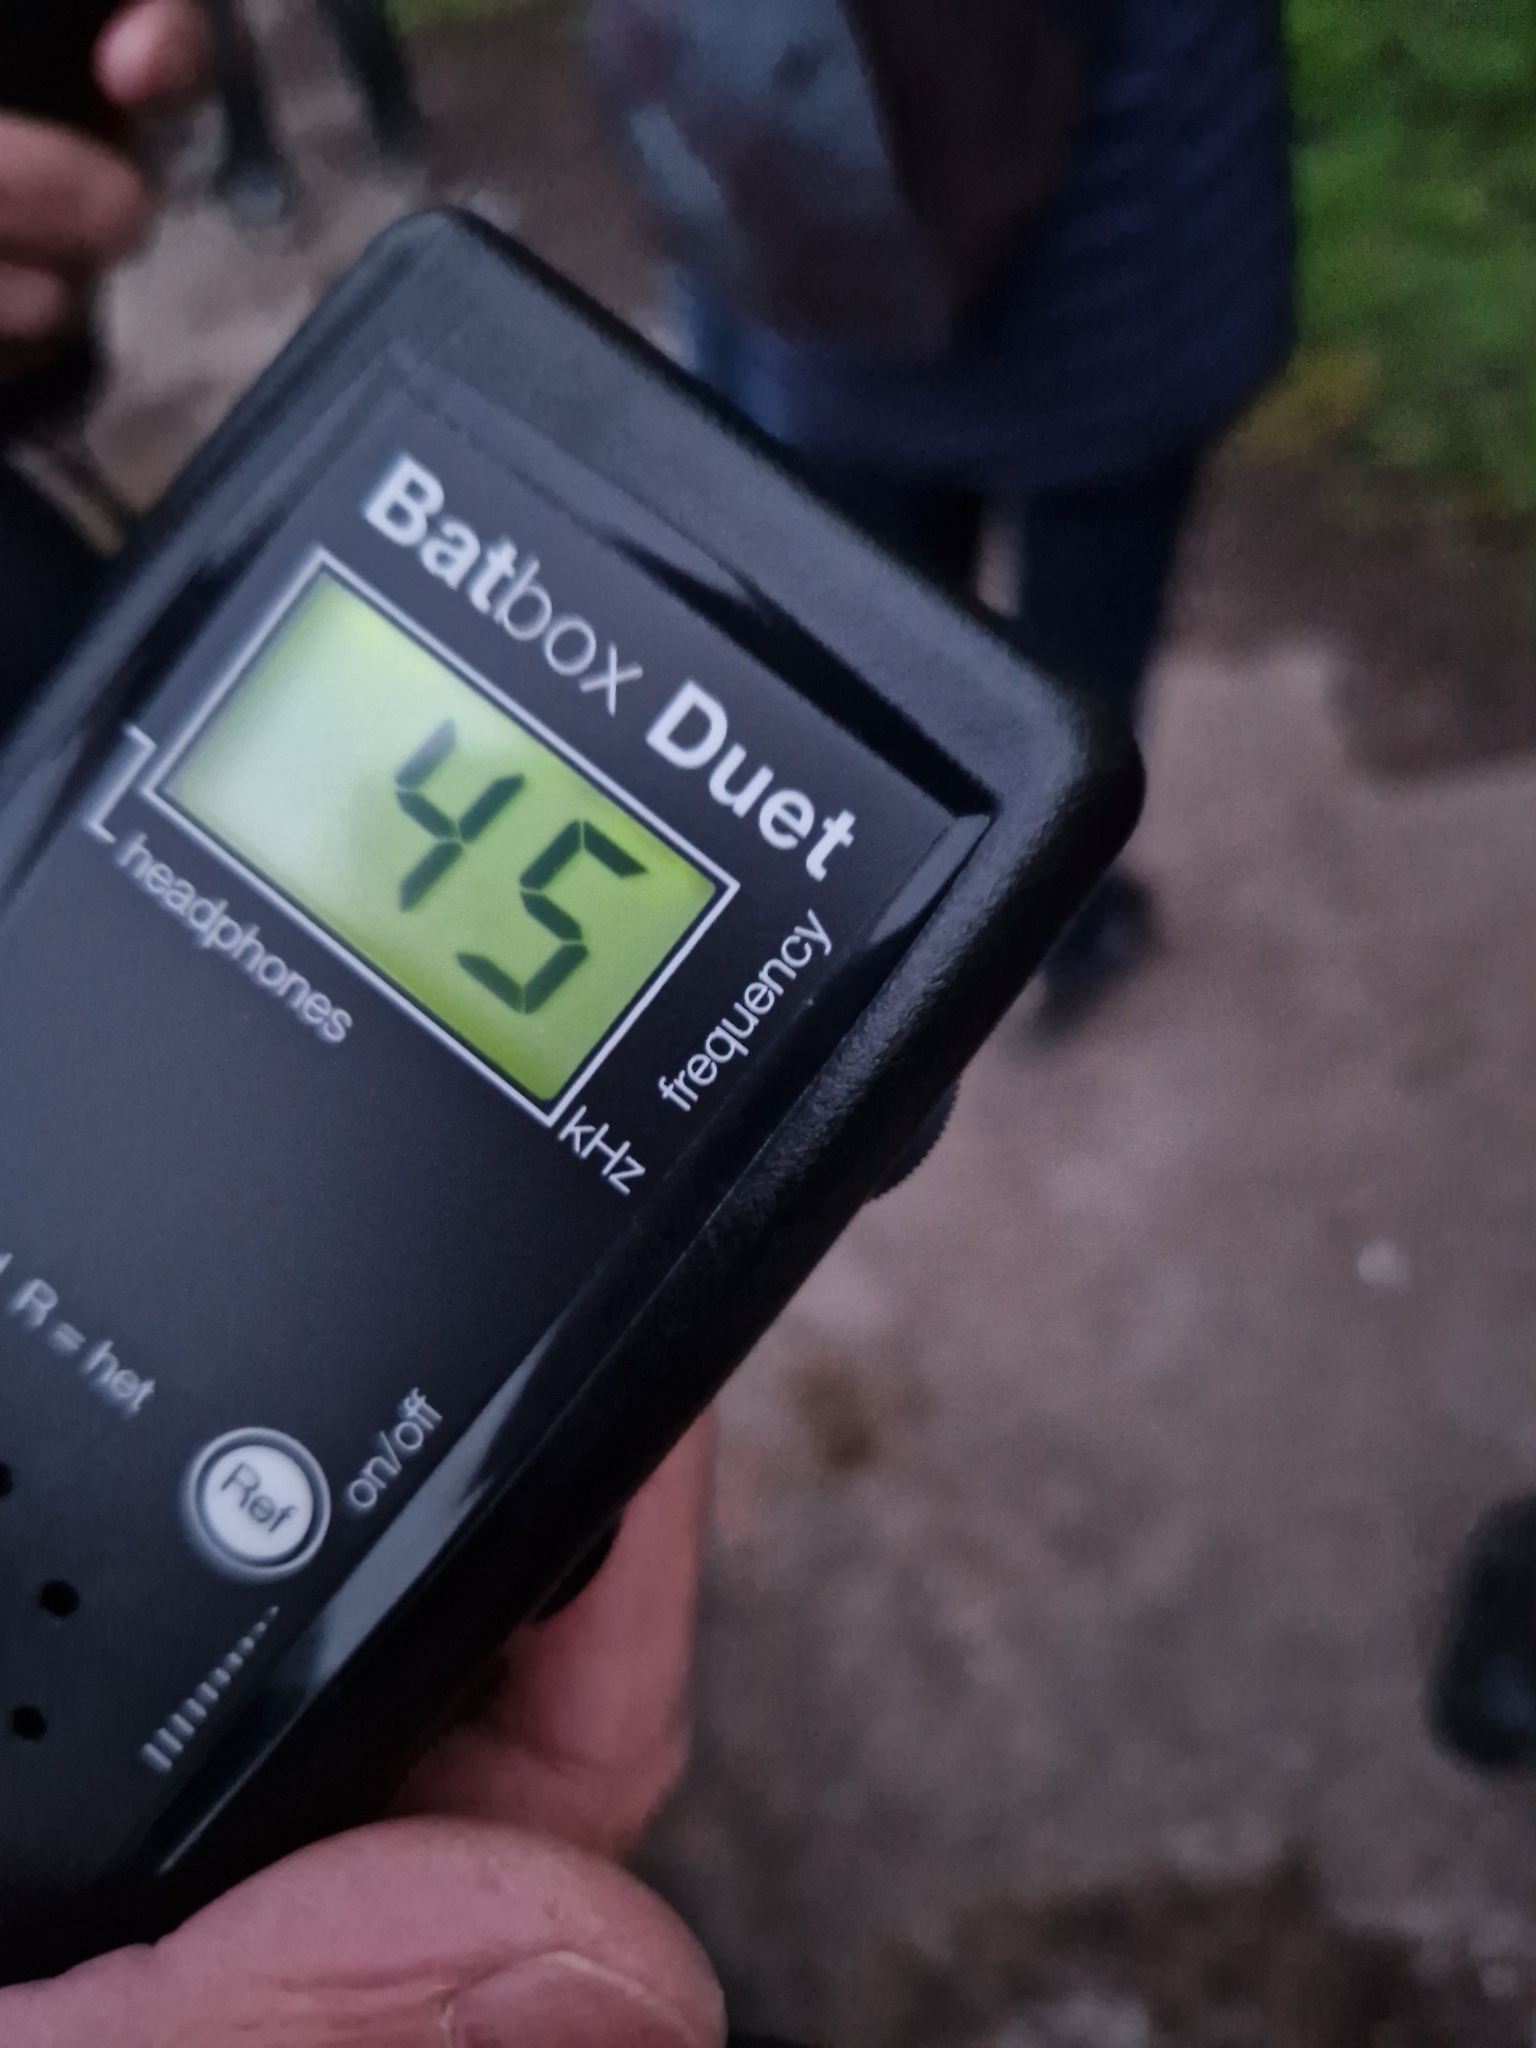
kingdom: Animalia
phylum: Chordata
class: Mammalia
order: Chiroptera
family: Vespertilionidae
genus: Pipistrellus
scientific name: Pipistrellus pipistrellus
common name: Common pipistrelle
